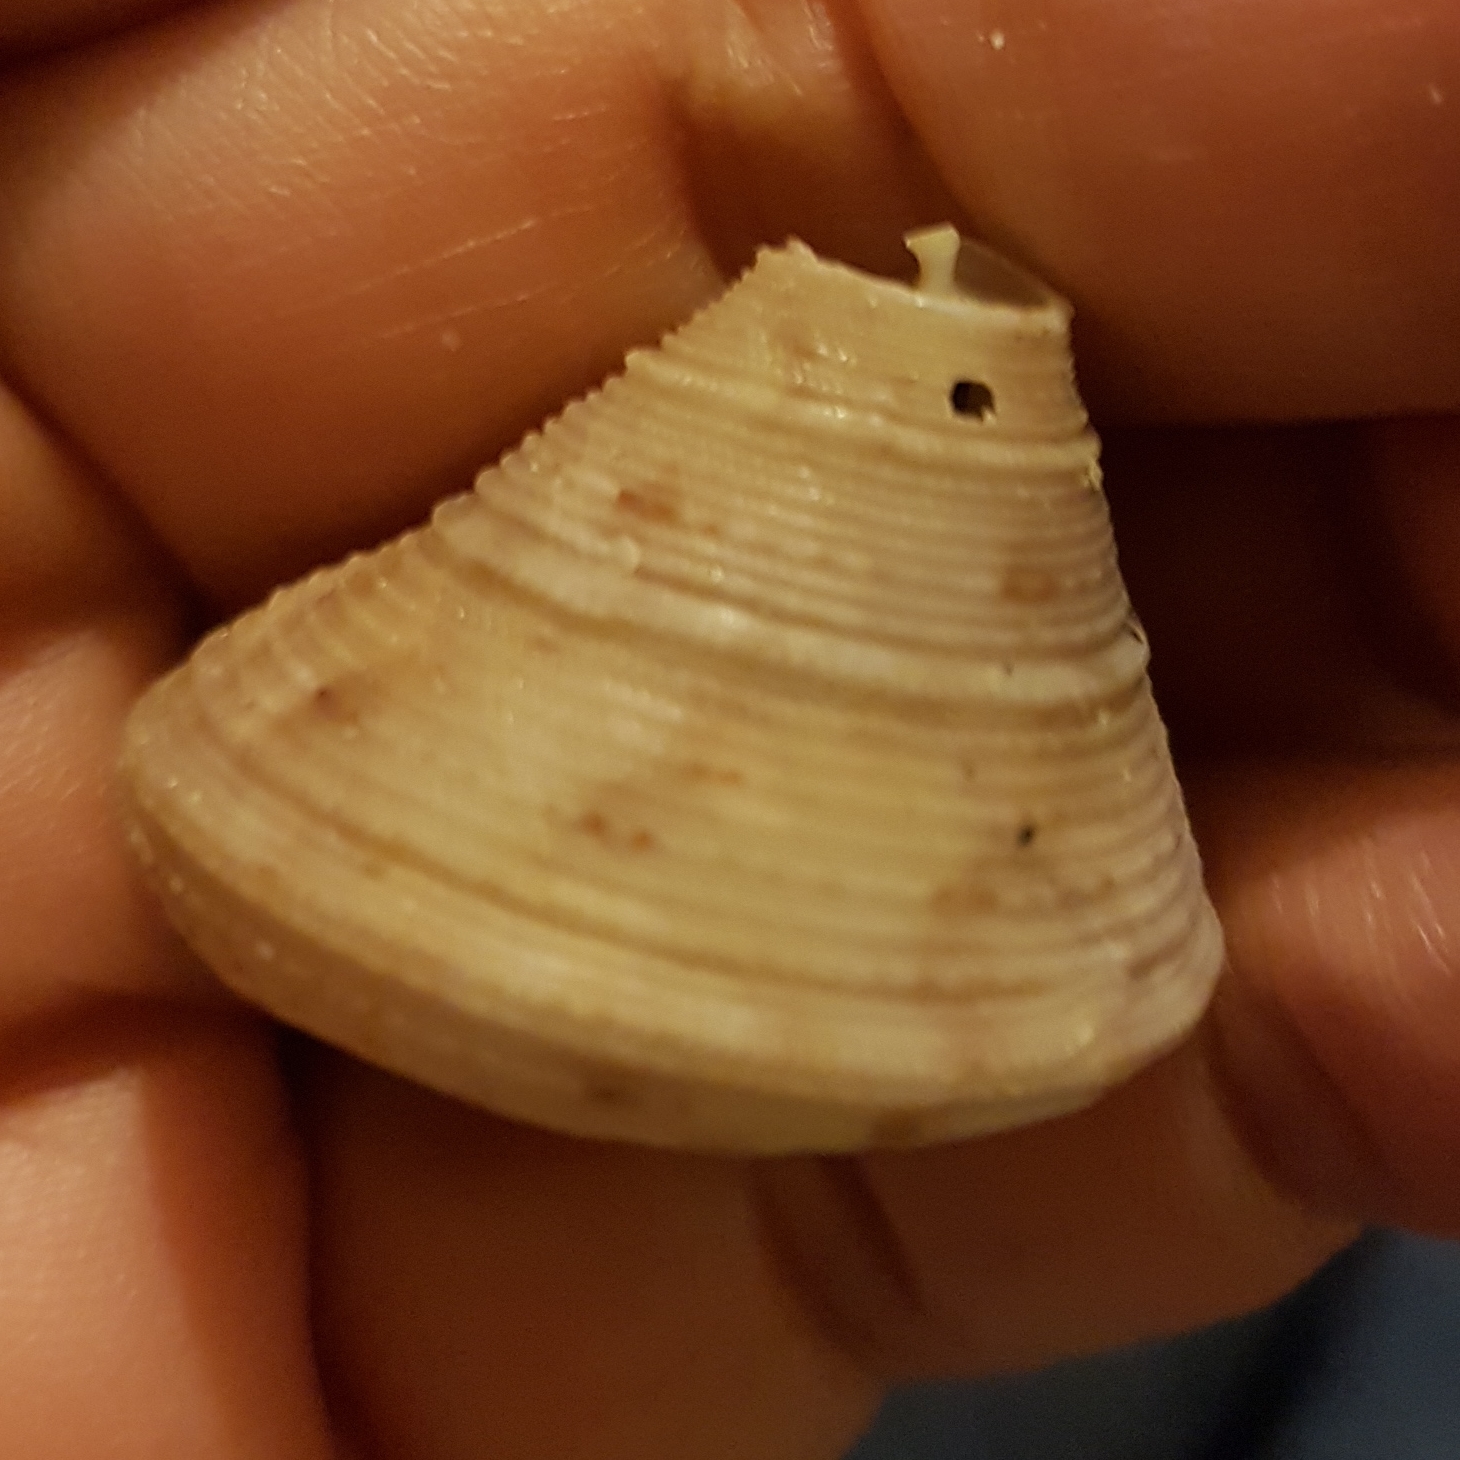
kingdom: Animalia
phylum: Mollusca
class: Gastropoda
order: Trochida
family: Calliostomatidae
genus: Calliostoma
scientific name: Calliostoma granulatum
